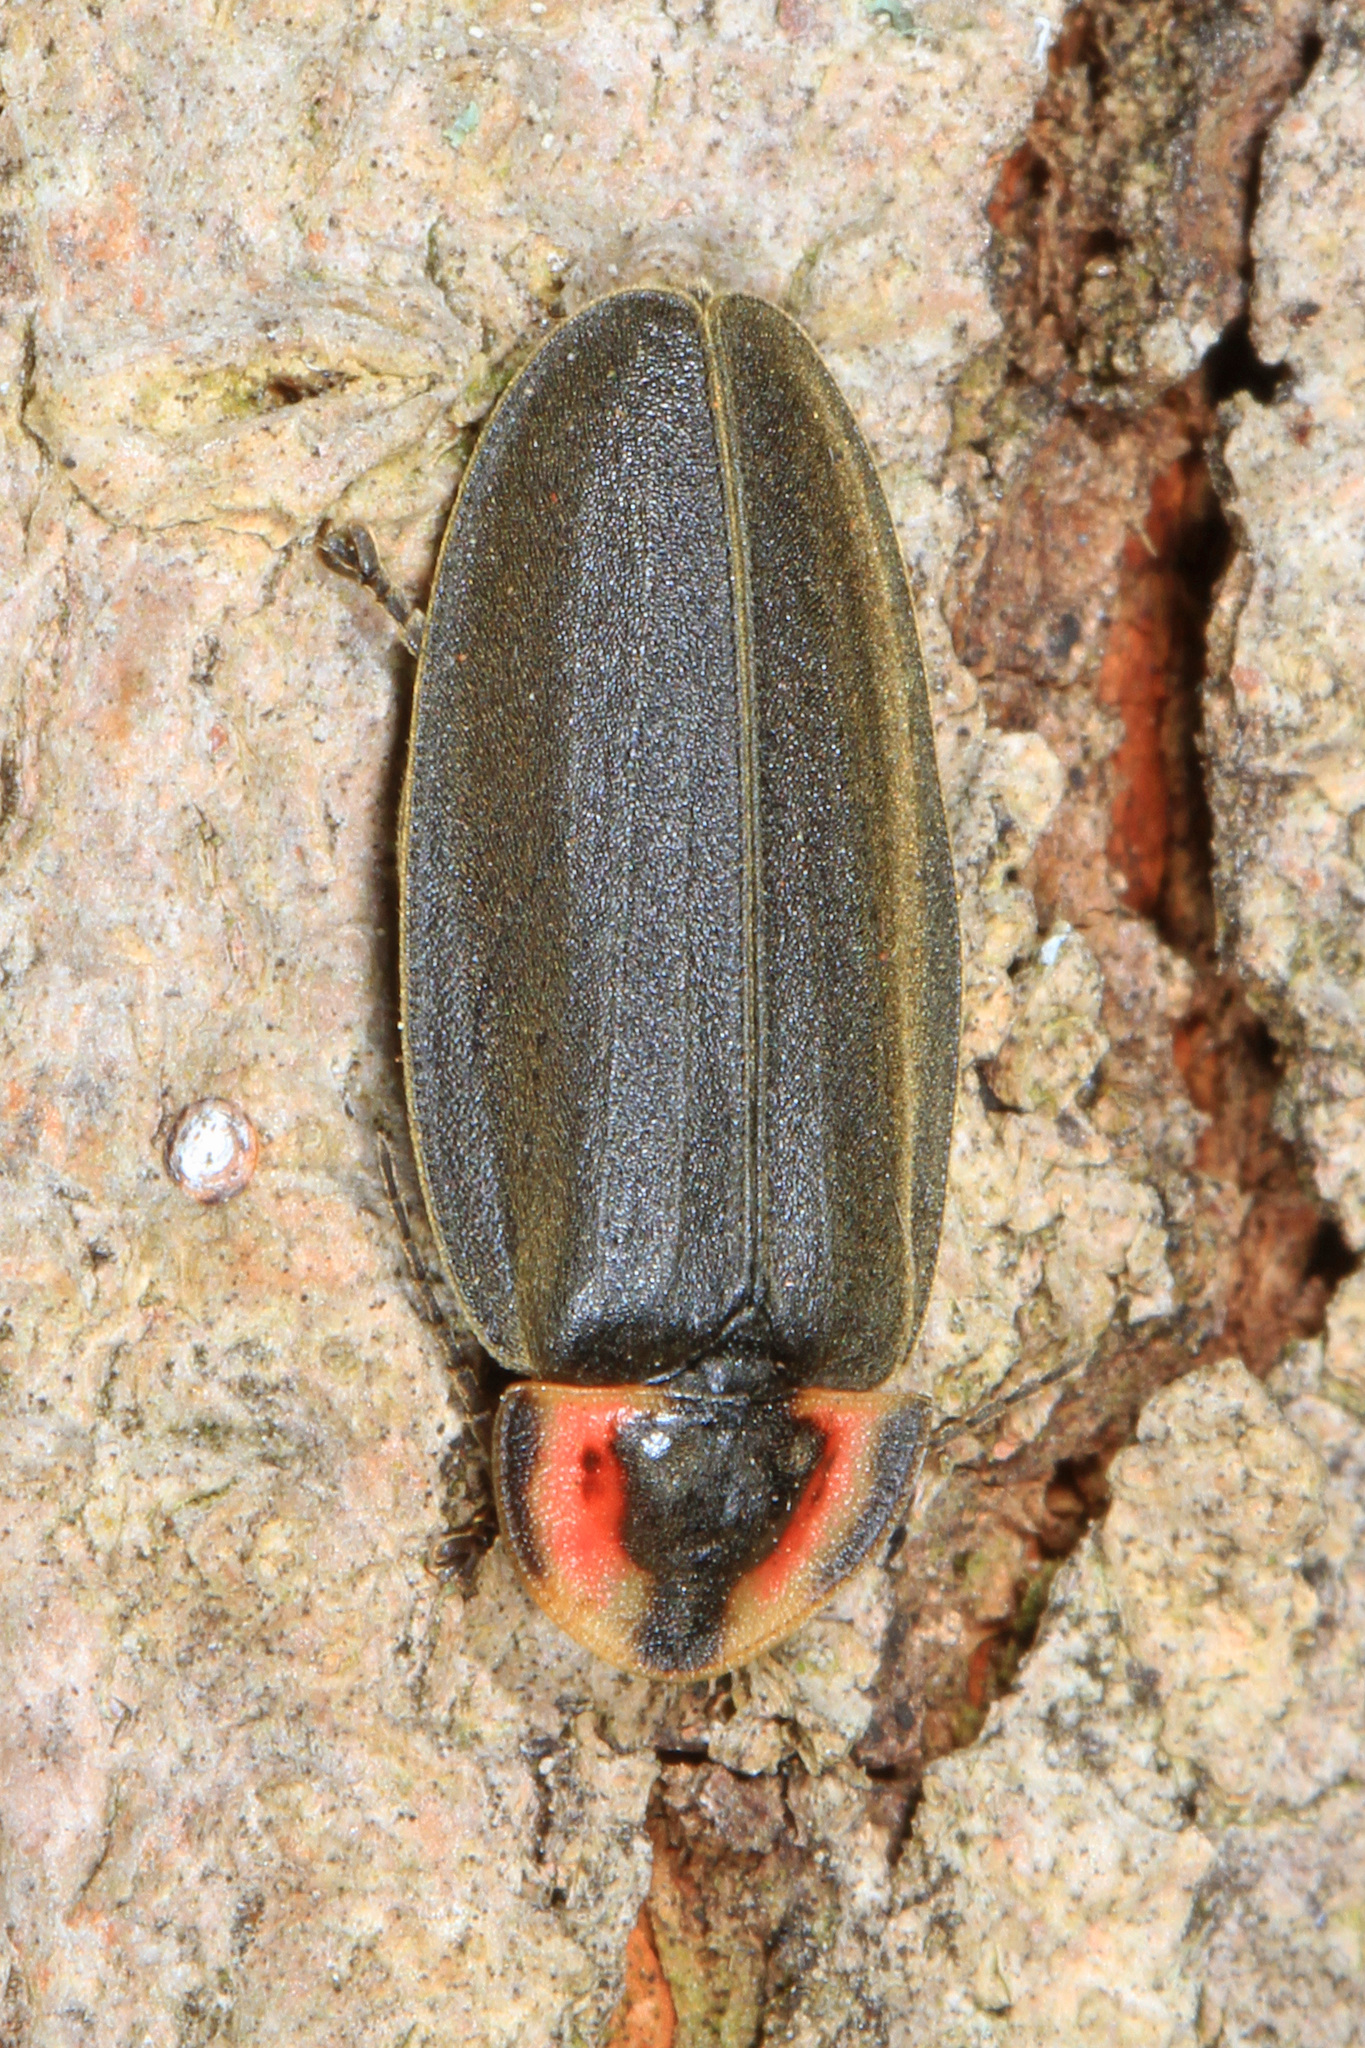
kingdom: Animalia
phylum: Arthropoda
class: Insecta
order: Coleoptera
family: Lampyridae
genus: Photinus
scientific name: Photinus corrusca
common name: Winter firefly
